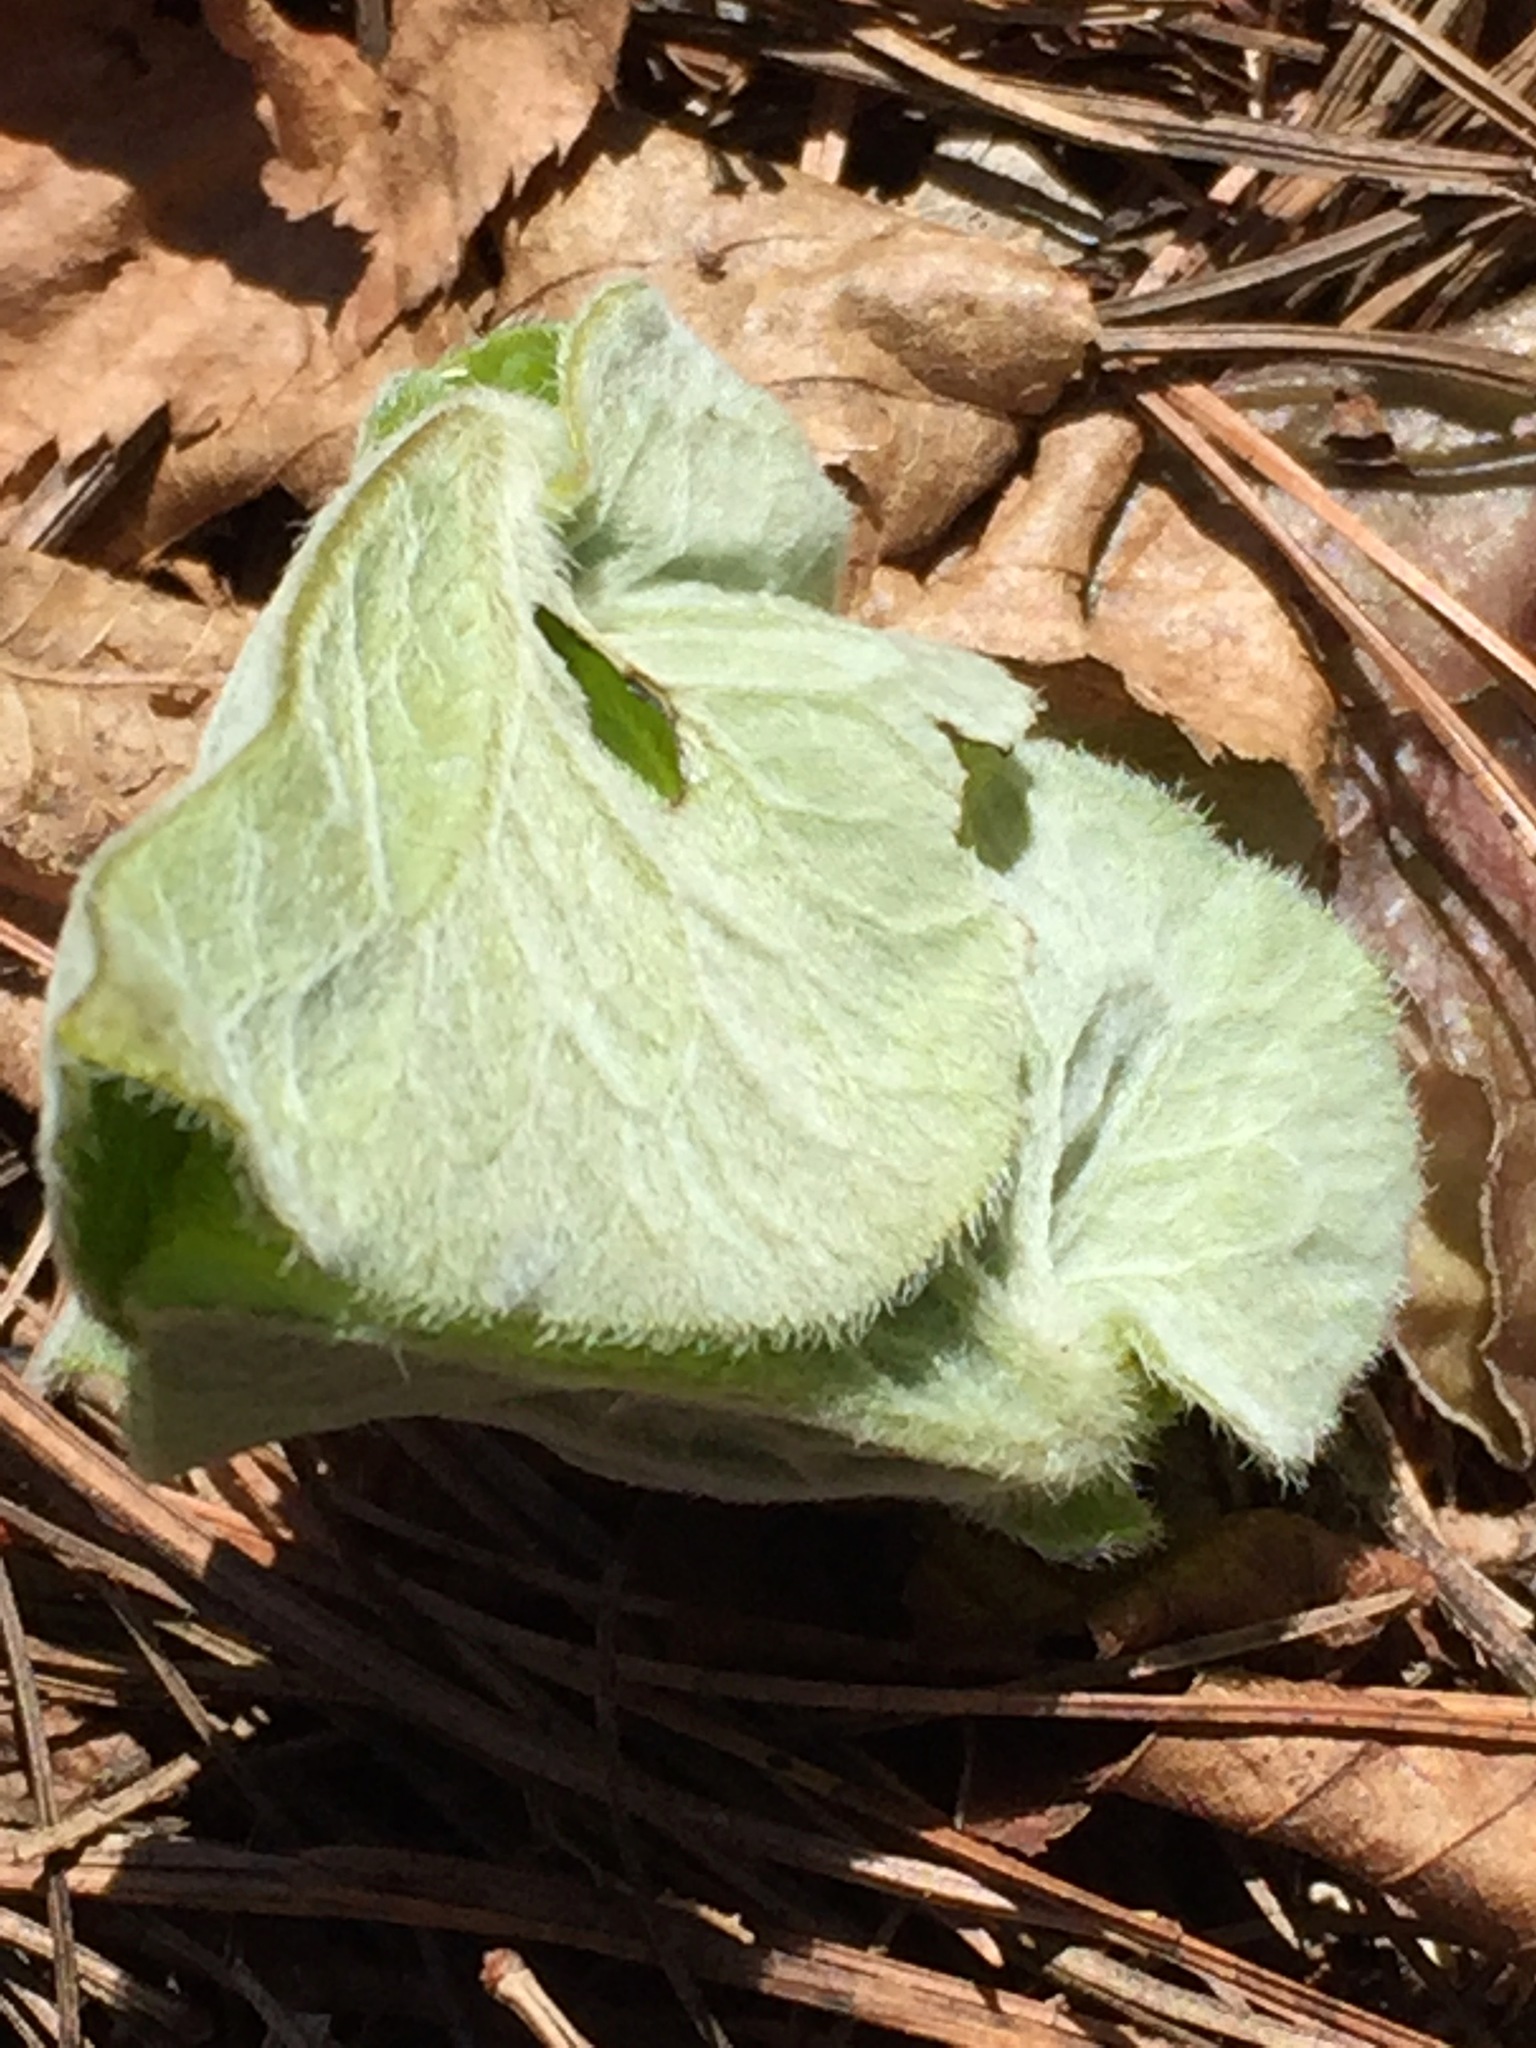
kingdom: Plantae
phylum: Tracheophyta
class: Magnoliopsida
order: Piperales
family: Aristolochiaceae
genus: Asarum
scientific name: Asarum canadense
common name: Wild ginger
